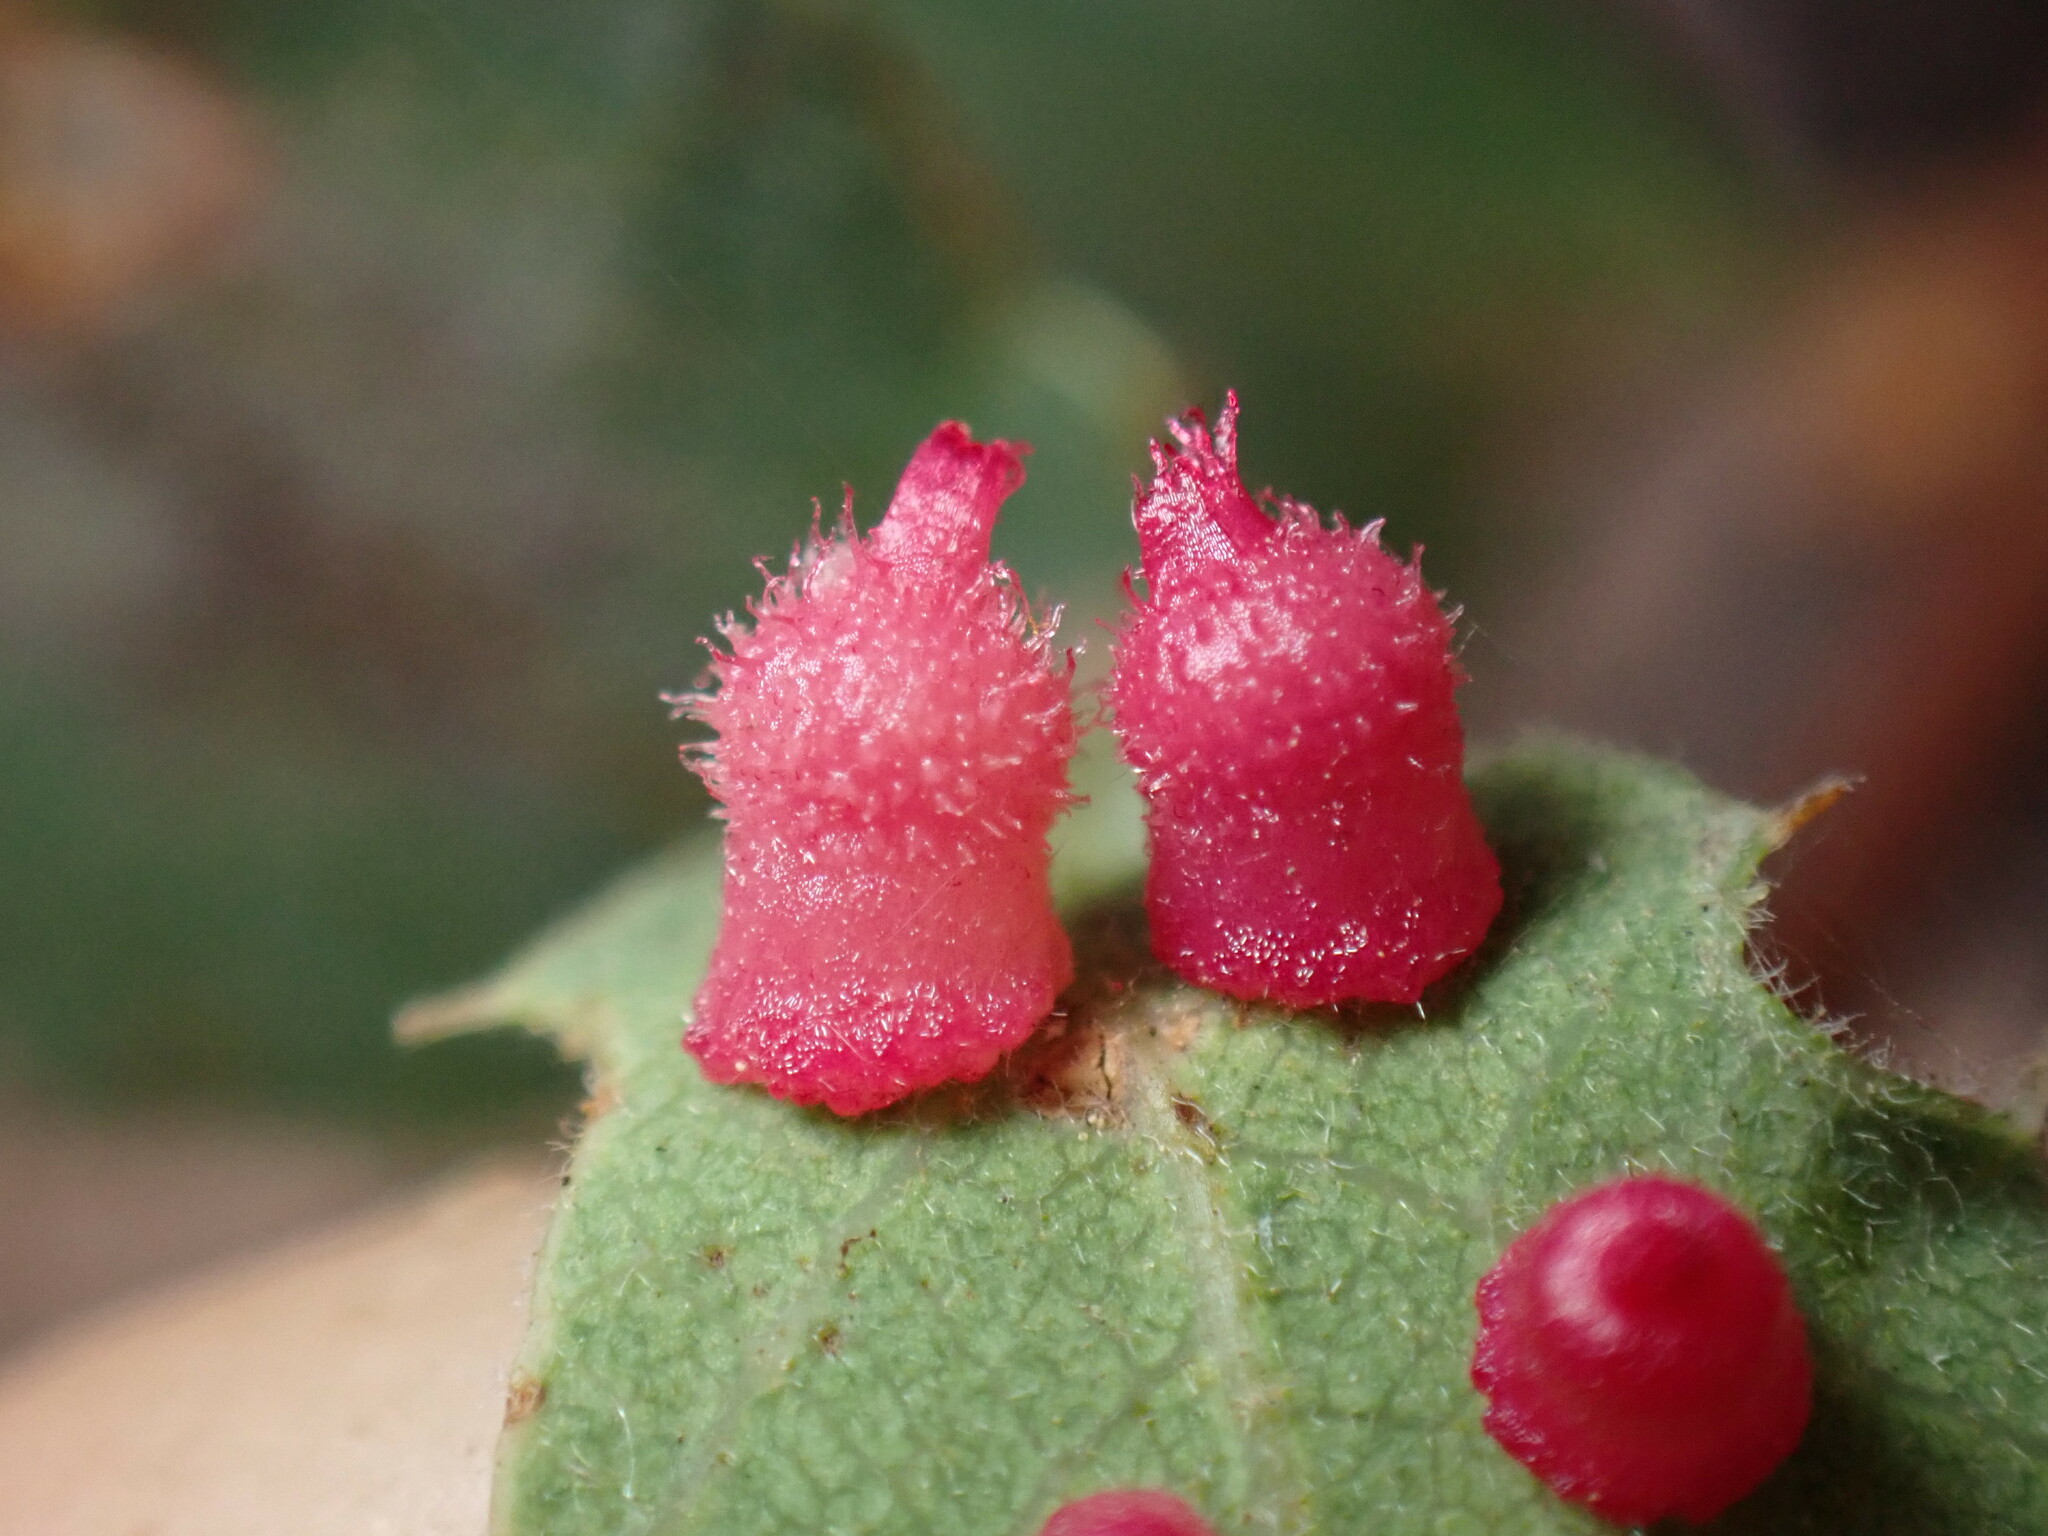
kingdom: Animalia
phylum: Arthropoda
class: Insecta
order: Hymenoptera
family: Cynipidae
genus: Andricus
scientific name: Andricus
